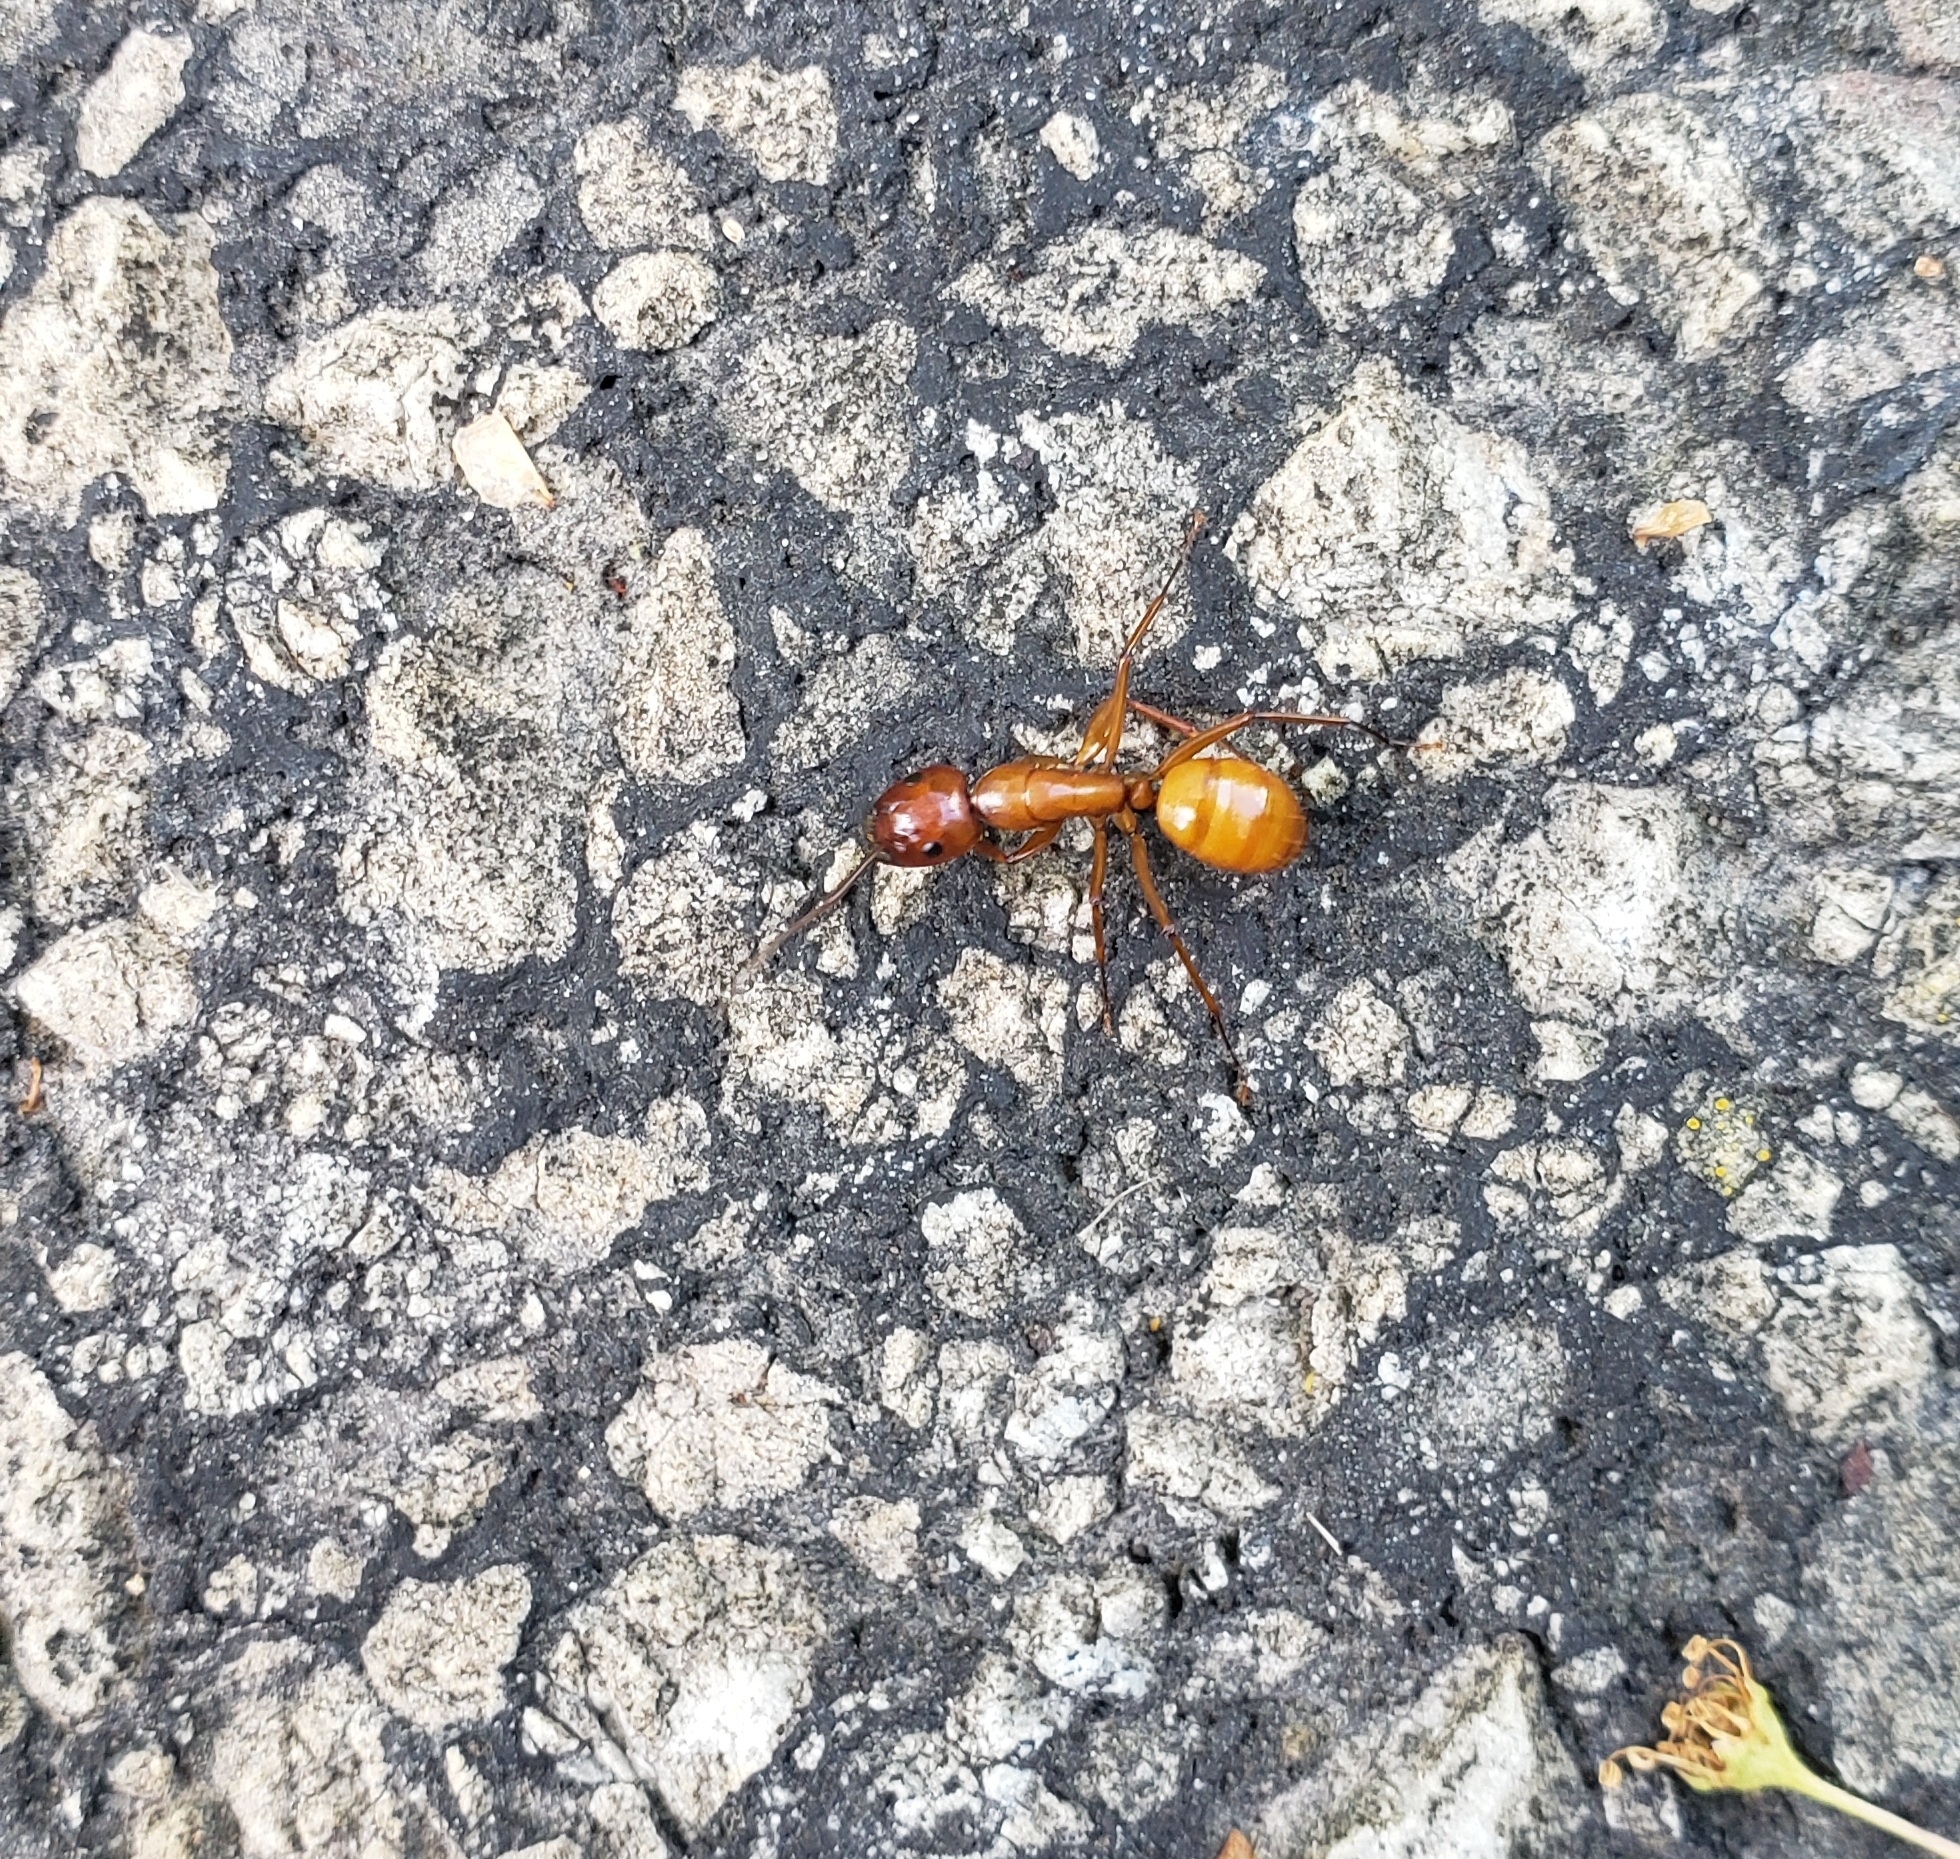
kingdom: Animalia
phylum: Arthropoda
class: Insecta
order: Hymenoptera
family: Formicidae
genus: Camponotus
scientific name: Camponotus castaneus
